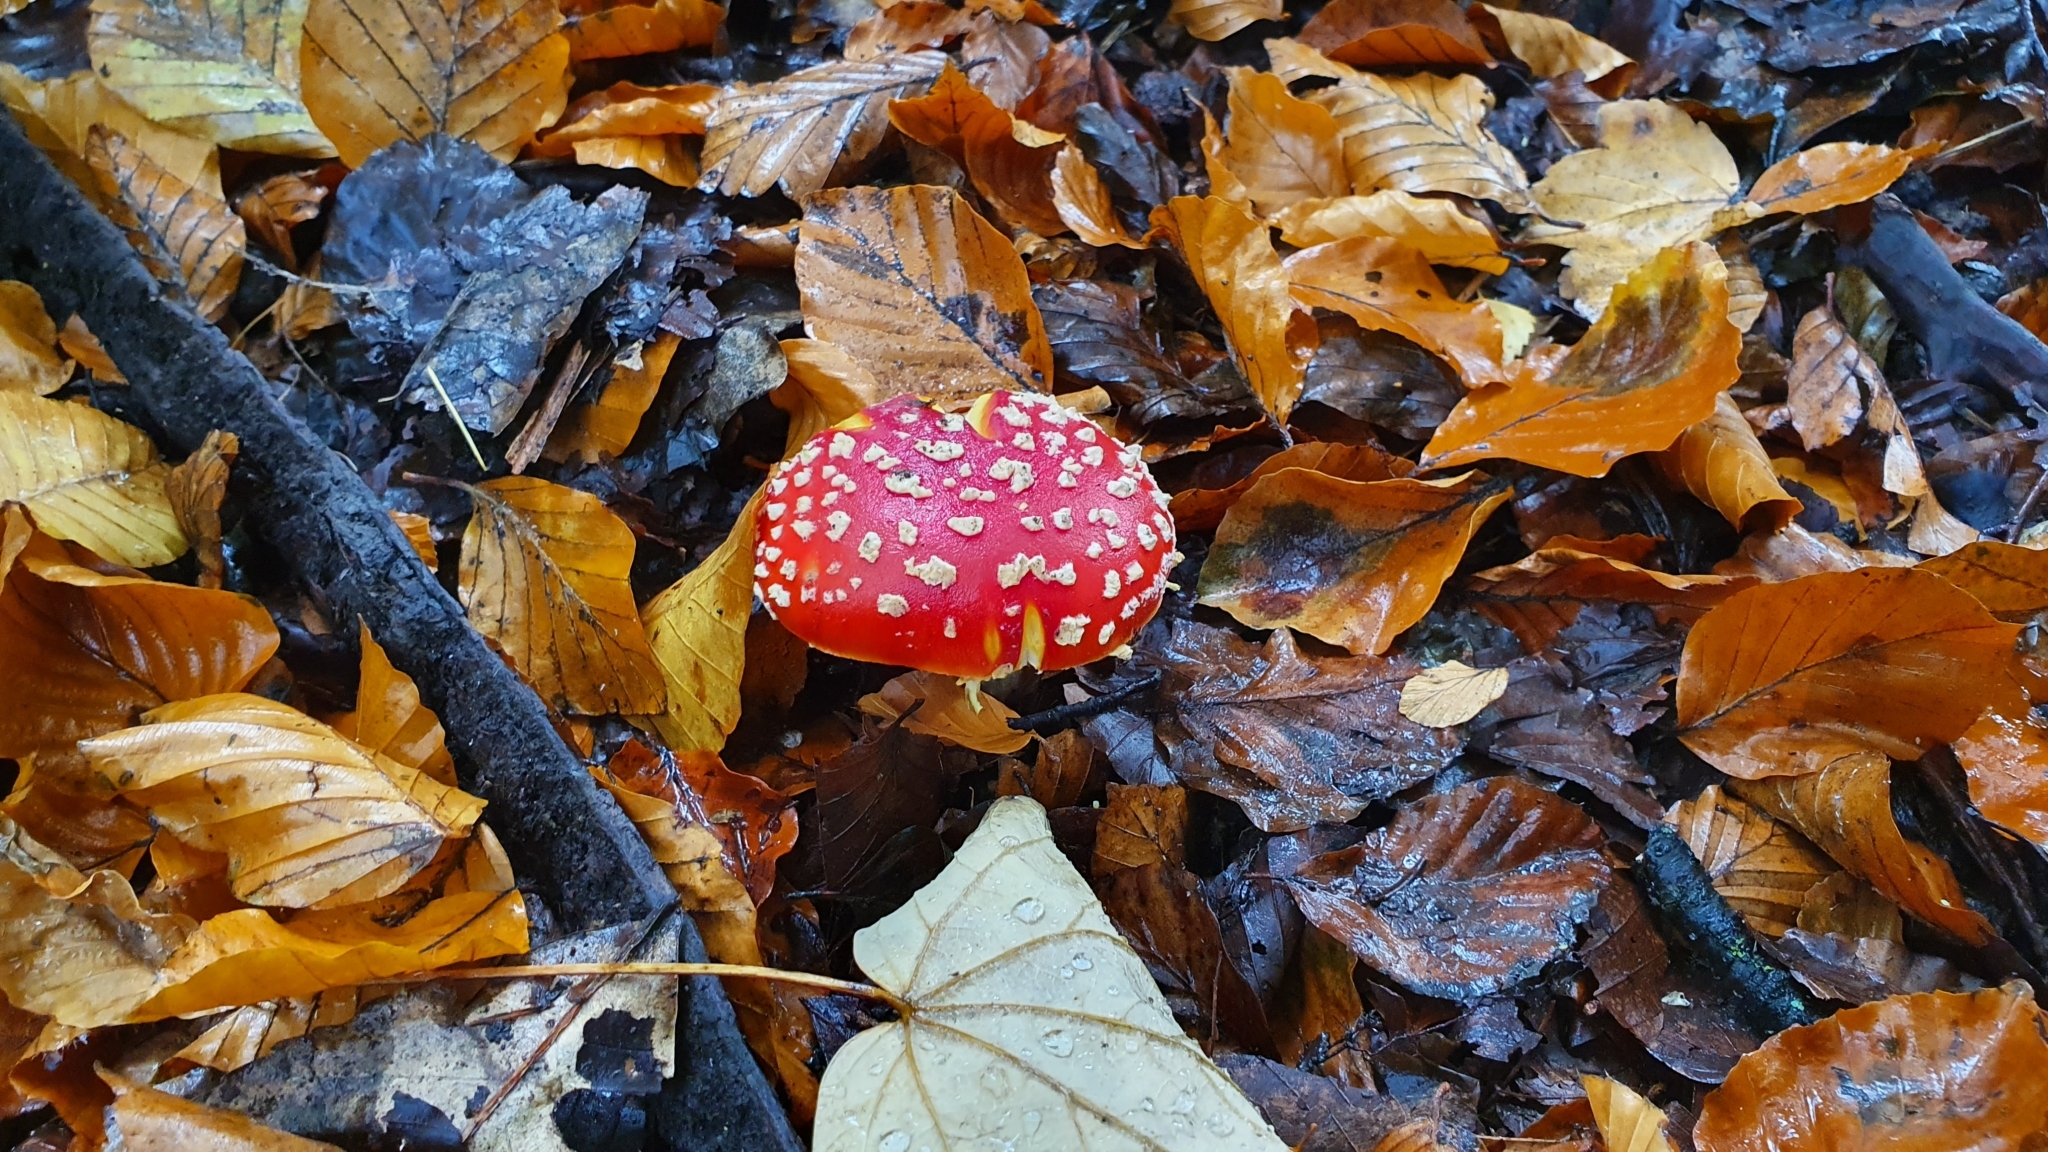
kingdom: Fungi
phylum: Basidiomycota
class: Agaricomycetes
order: Agaricales
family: Amanitaceae
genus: Amanita
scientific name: Amanita muscaria
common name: Fly agaric
